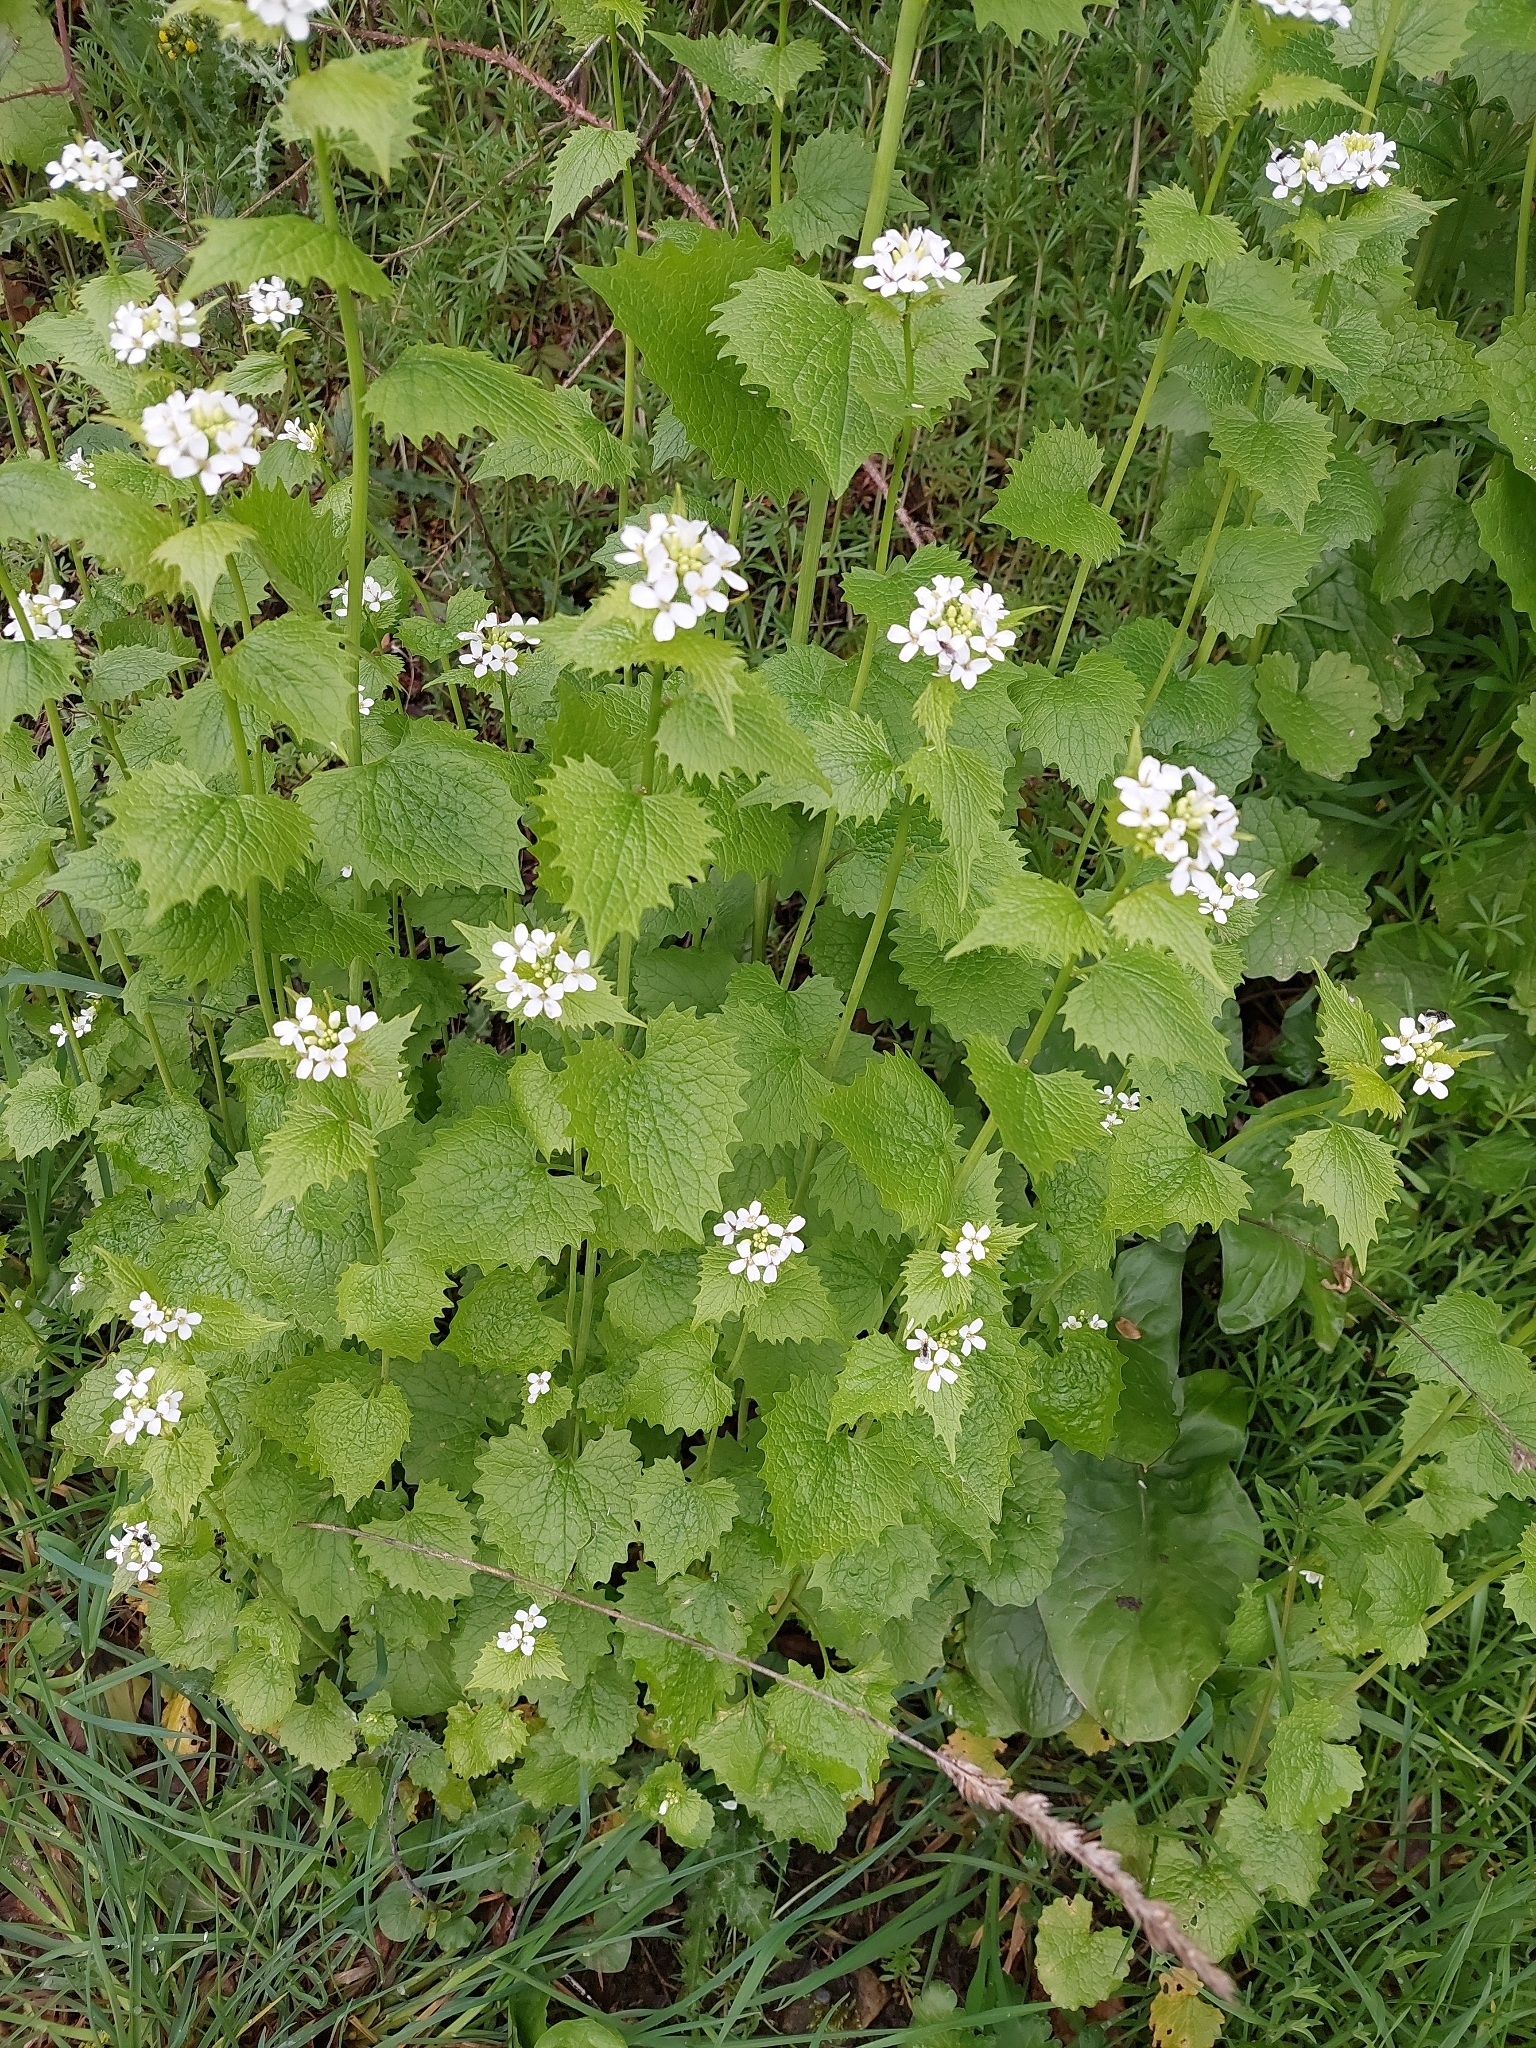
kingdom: Plantae
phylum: Tracheophyta
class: Magnoliopsida
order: Brassicales
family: Brassicaceae
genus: Alliaria
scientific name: Alliaria petiolata
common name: Garlic mustard
